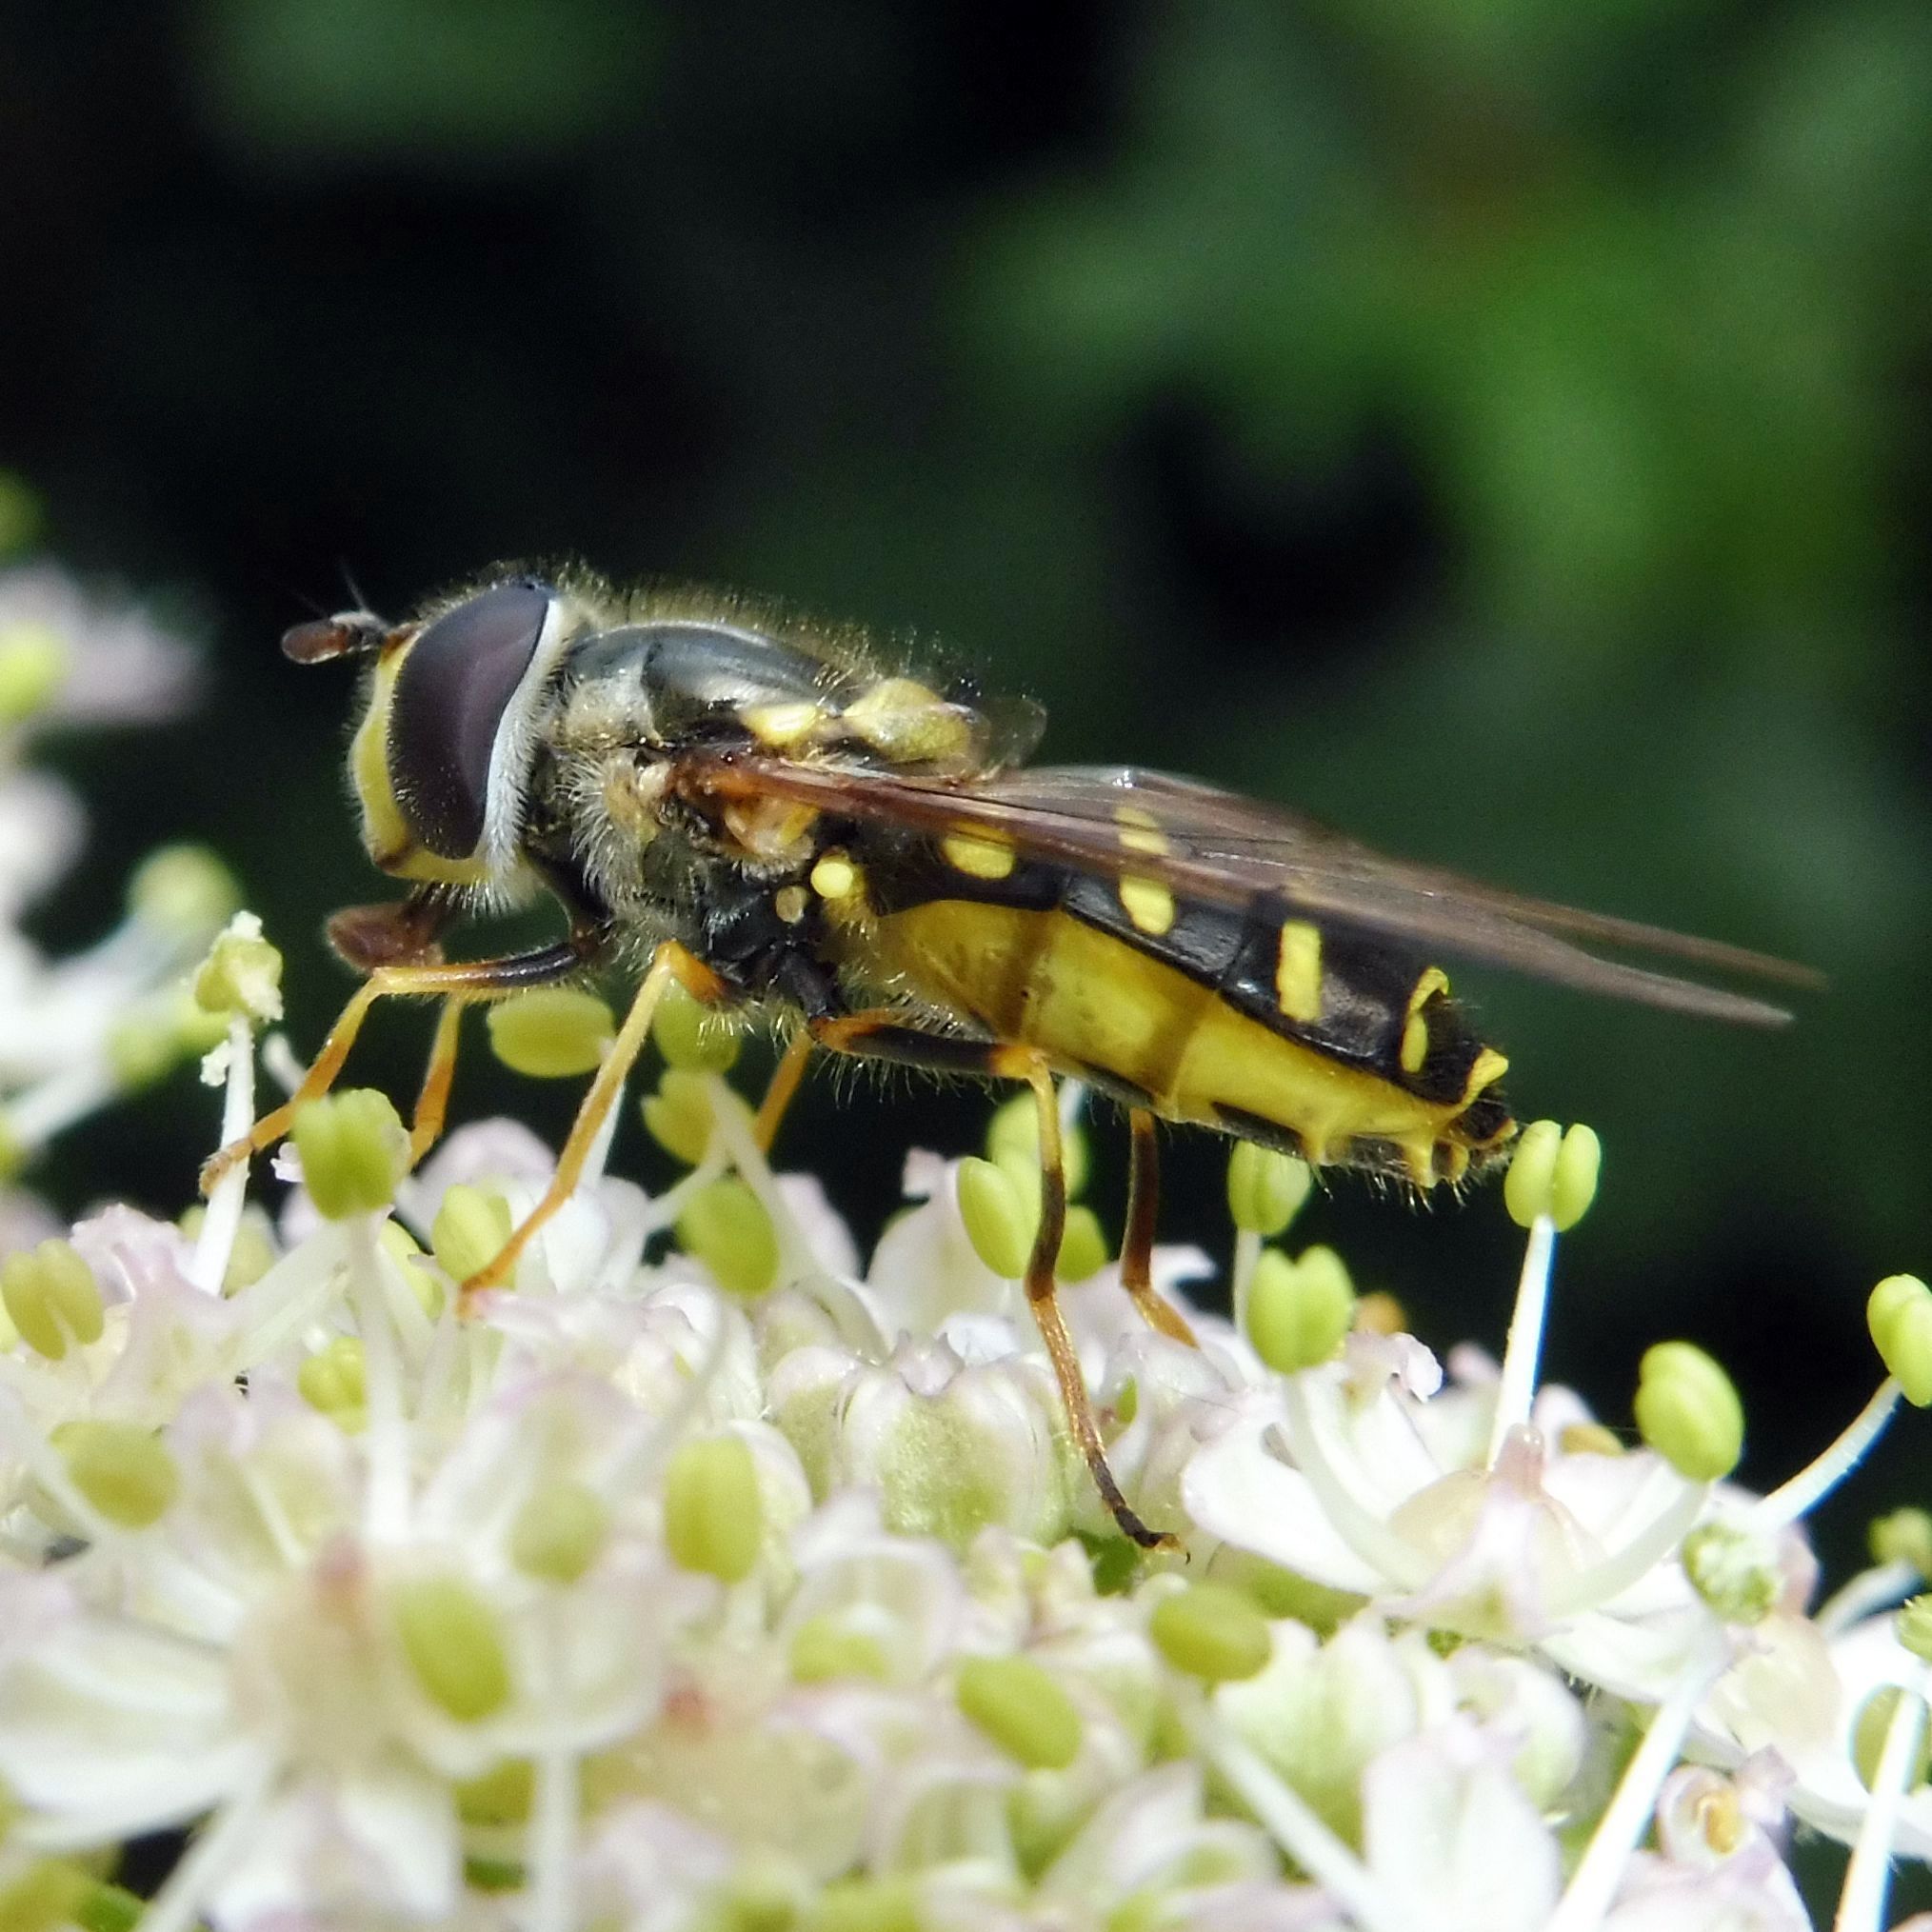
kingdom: Animalia
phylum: Arthropoda
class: Insecta
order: Diptera
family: Syrphidae
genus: Dasysyrphus
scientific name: Dasysyrphus albostriatus
